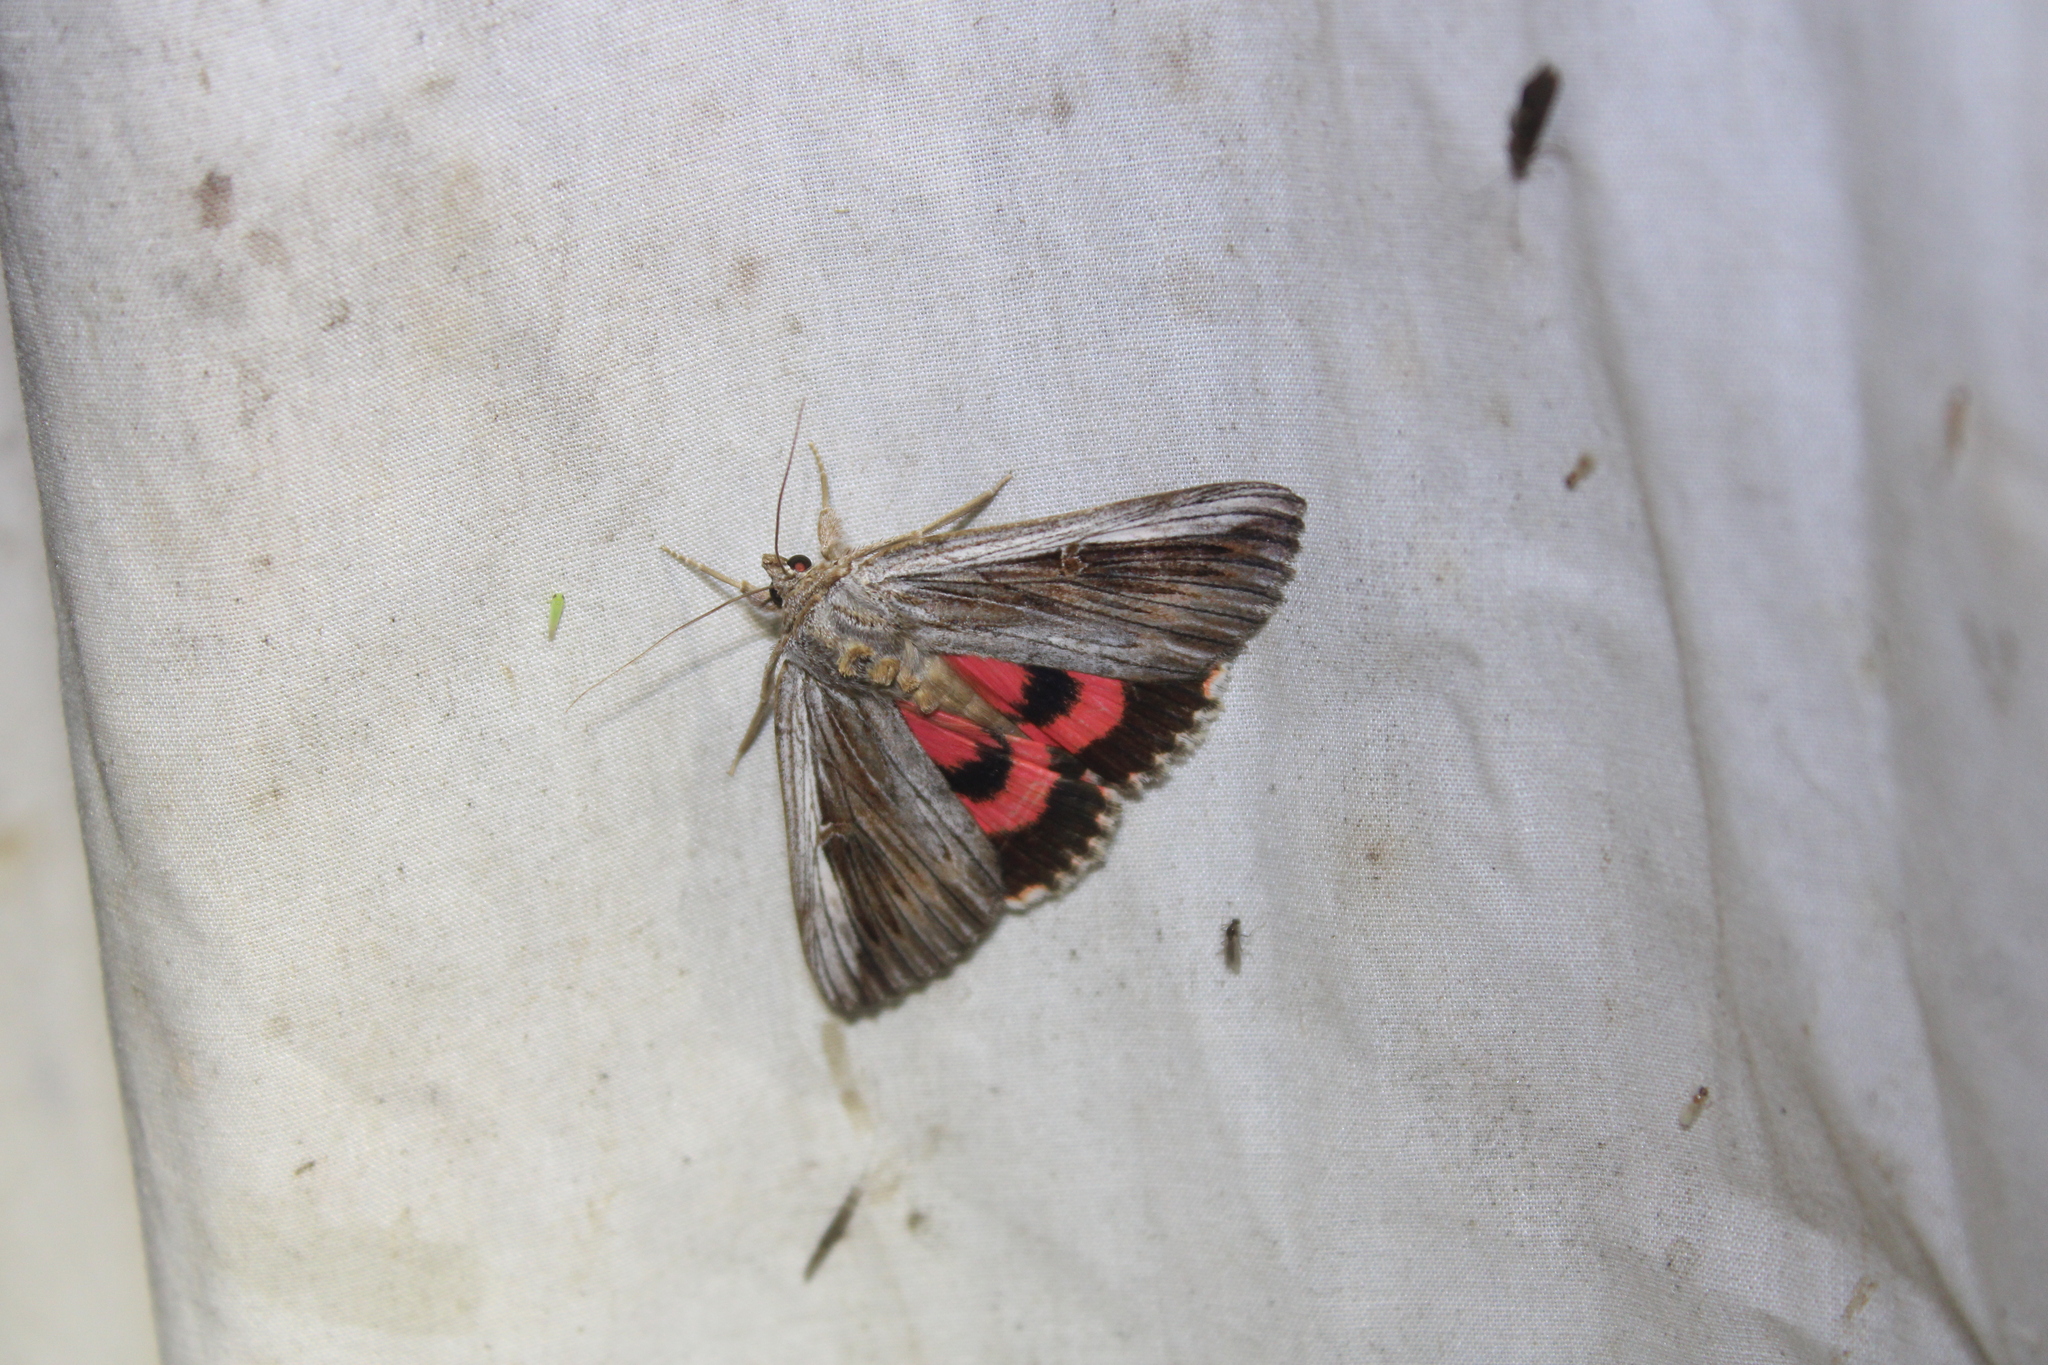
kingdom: Animalia
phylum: Arthropoda
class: Insecta
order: Lepidoptera
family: Erebidae
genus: Catocala
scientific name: Catocala herodias
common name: Pine barrens underwing
